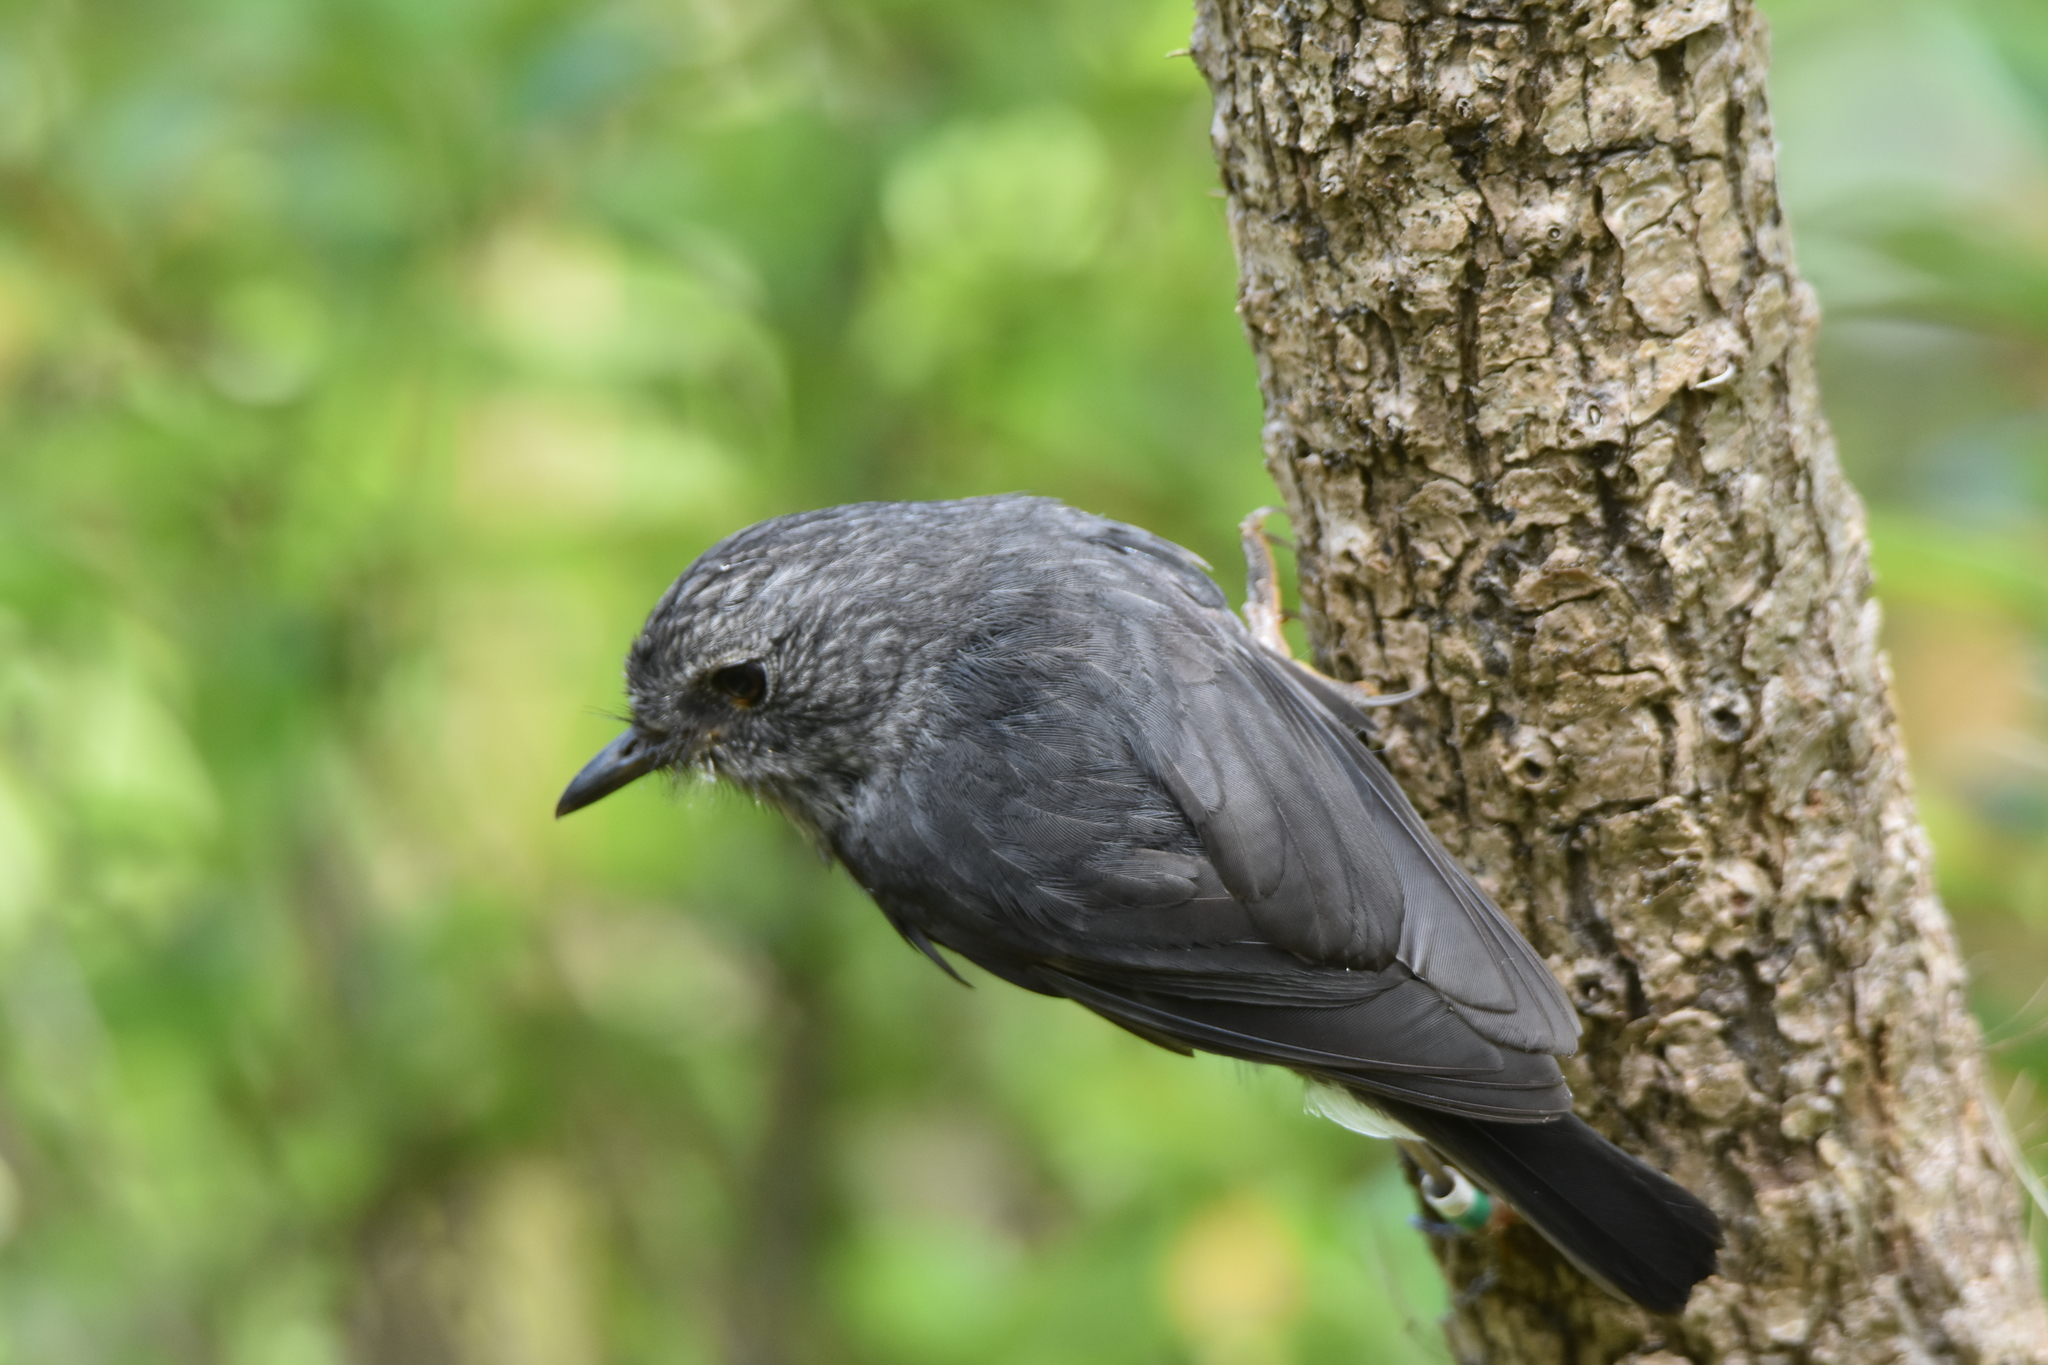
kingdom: Animalia
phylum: Chordata
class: Aves
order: Passeriformes
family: Petroicidae
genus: Petroica
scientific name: Petroica australis
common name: New zealand robin
